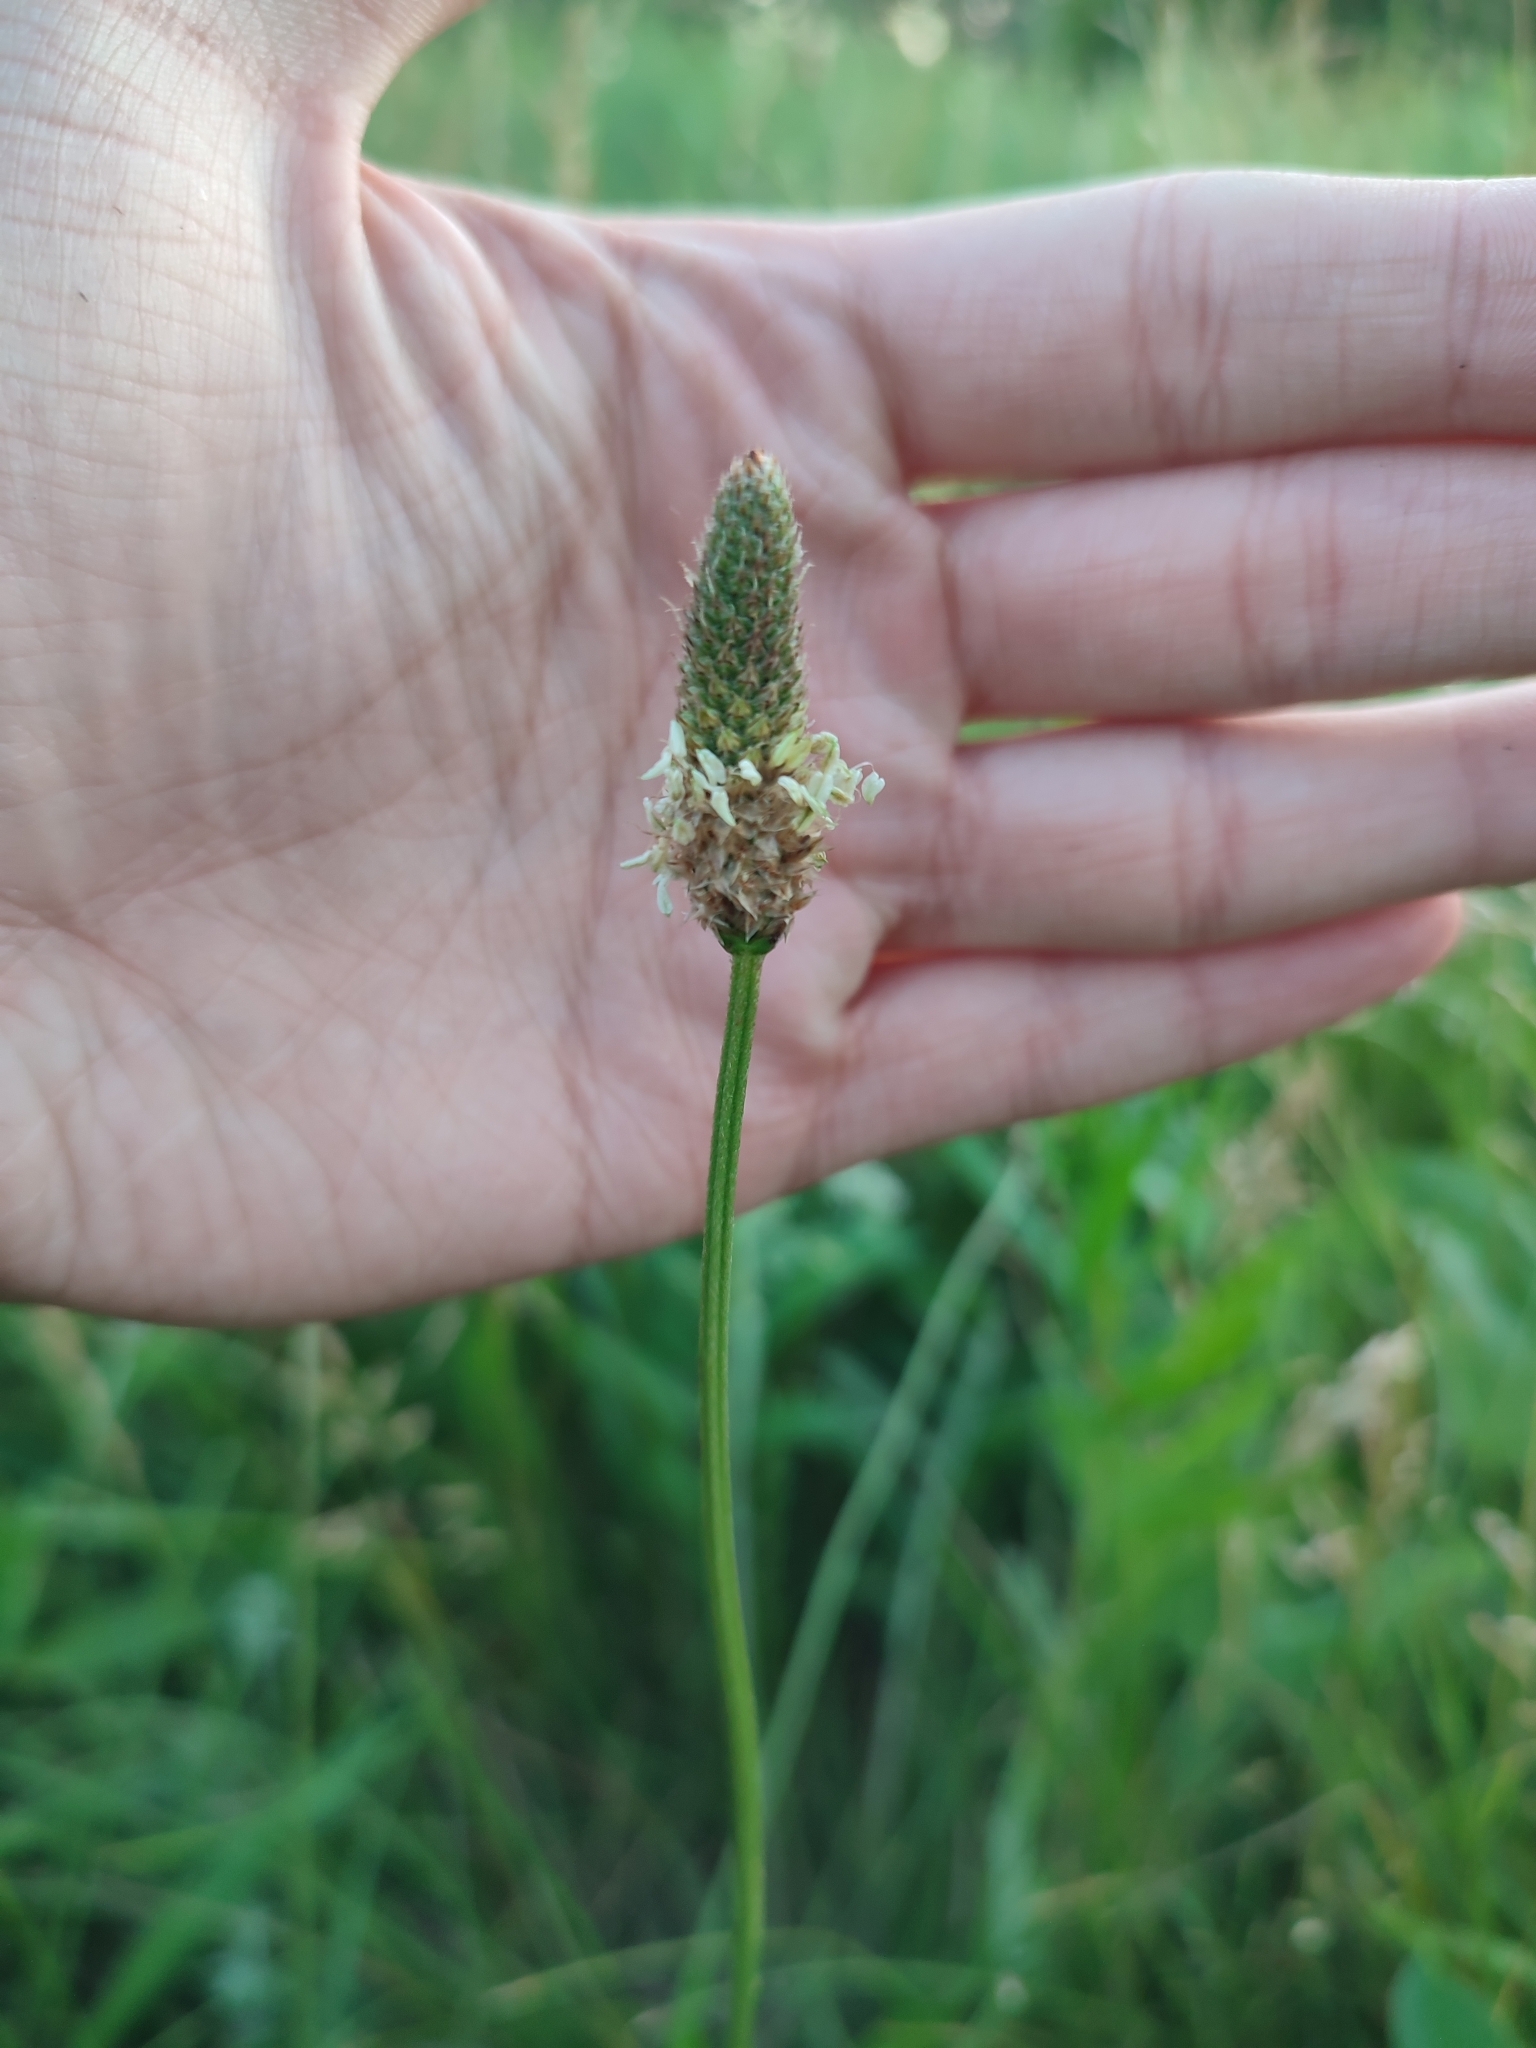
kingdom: Plantae
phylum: Tracheophyta
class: Magnoliopsida
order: Lamiales
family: Plantaginaceae
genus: Plantago
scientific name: Plantago lanceolata
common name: Ribwort plantain
